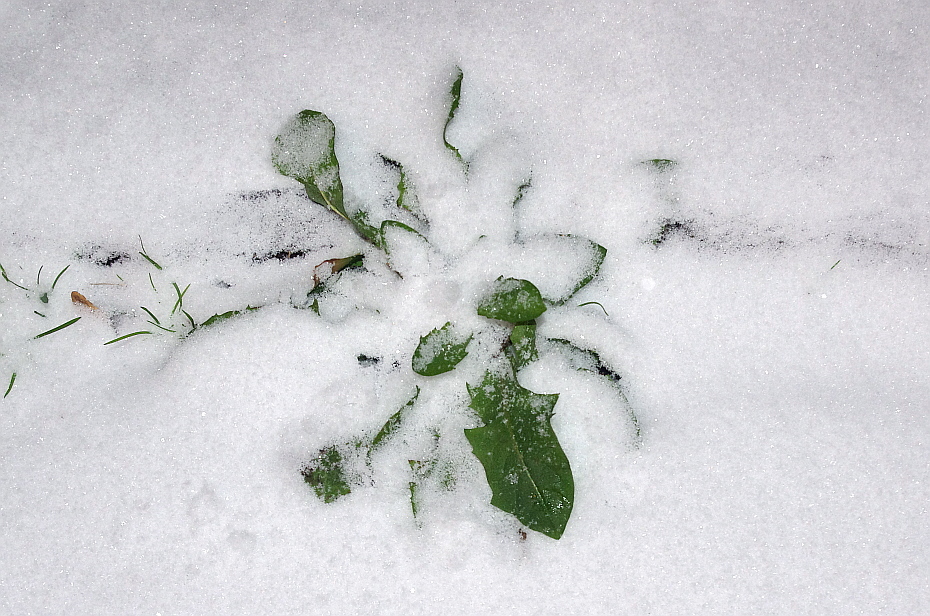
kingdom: Plantae
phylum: Tracheophyta
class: Magnoliopsida
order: Asterales
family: Asteraceae
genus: Taraxacum
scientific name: Taraxacum officinale
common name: Common dandelion
